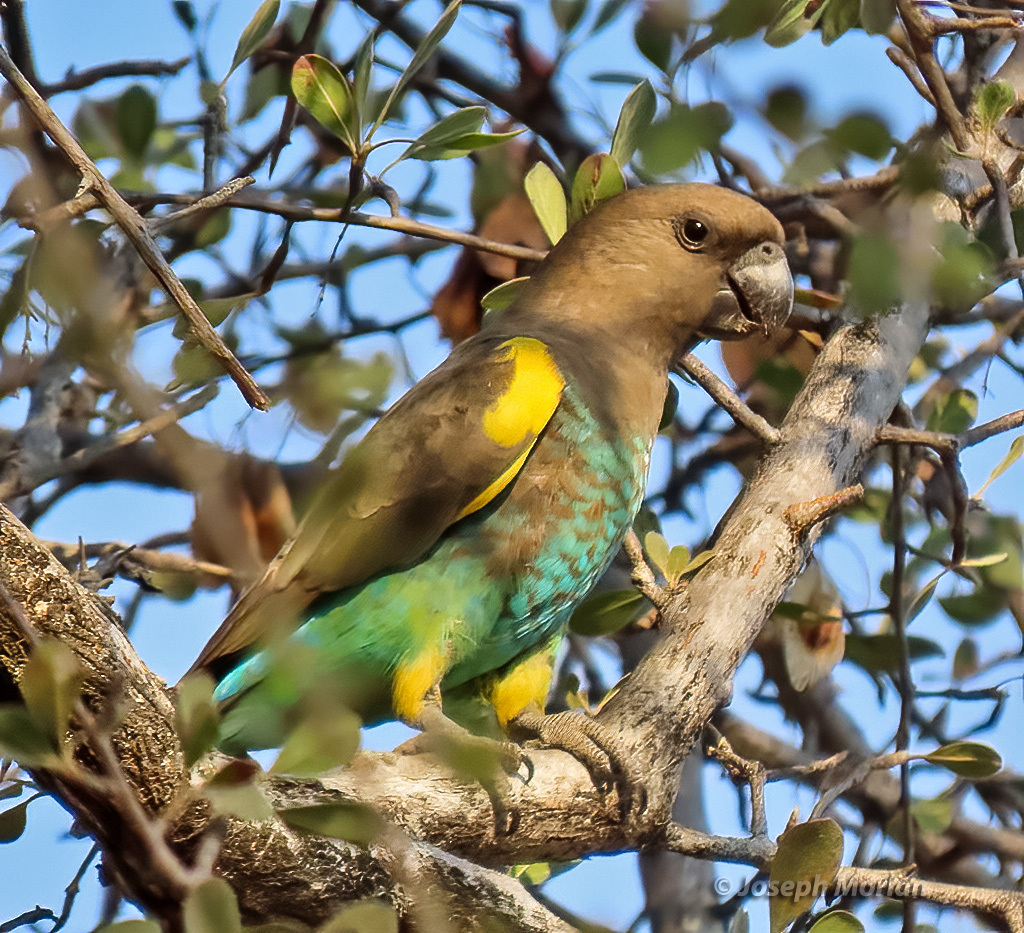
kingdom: Animalia
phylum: Chordata
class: Aves
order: Psittaciformes
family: Psittacidae
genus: Poicephalus
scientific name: Poicephalus meyeri
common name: Meyer's parrot
